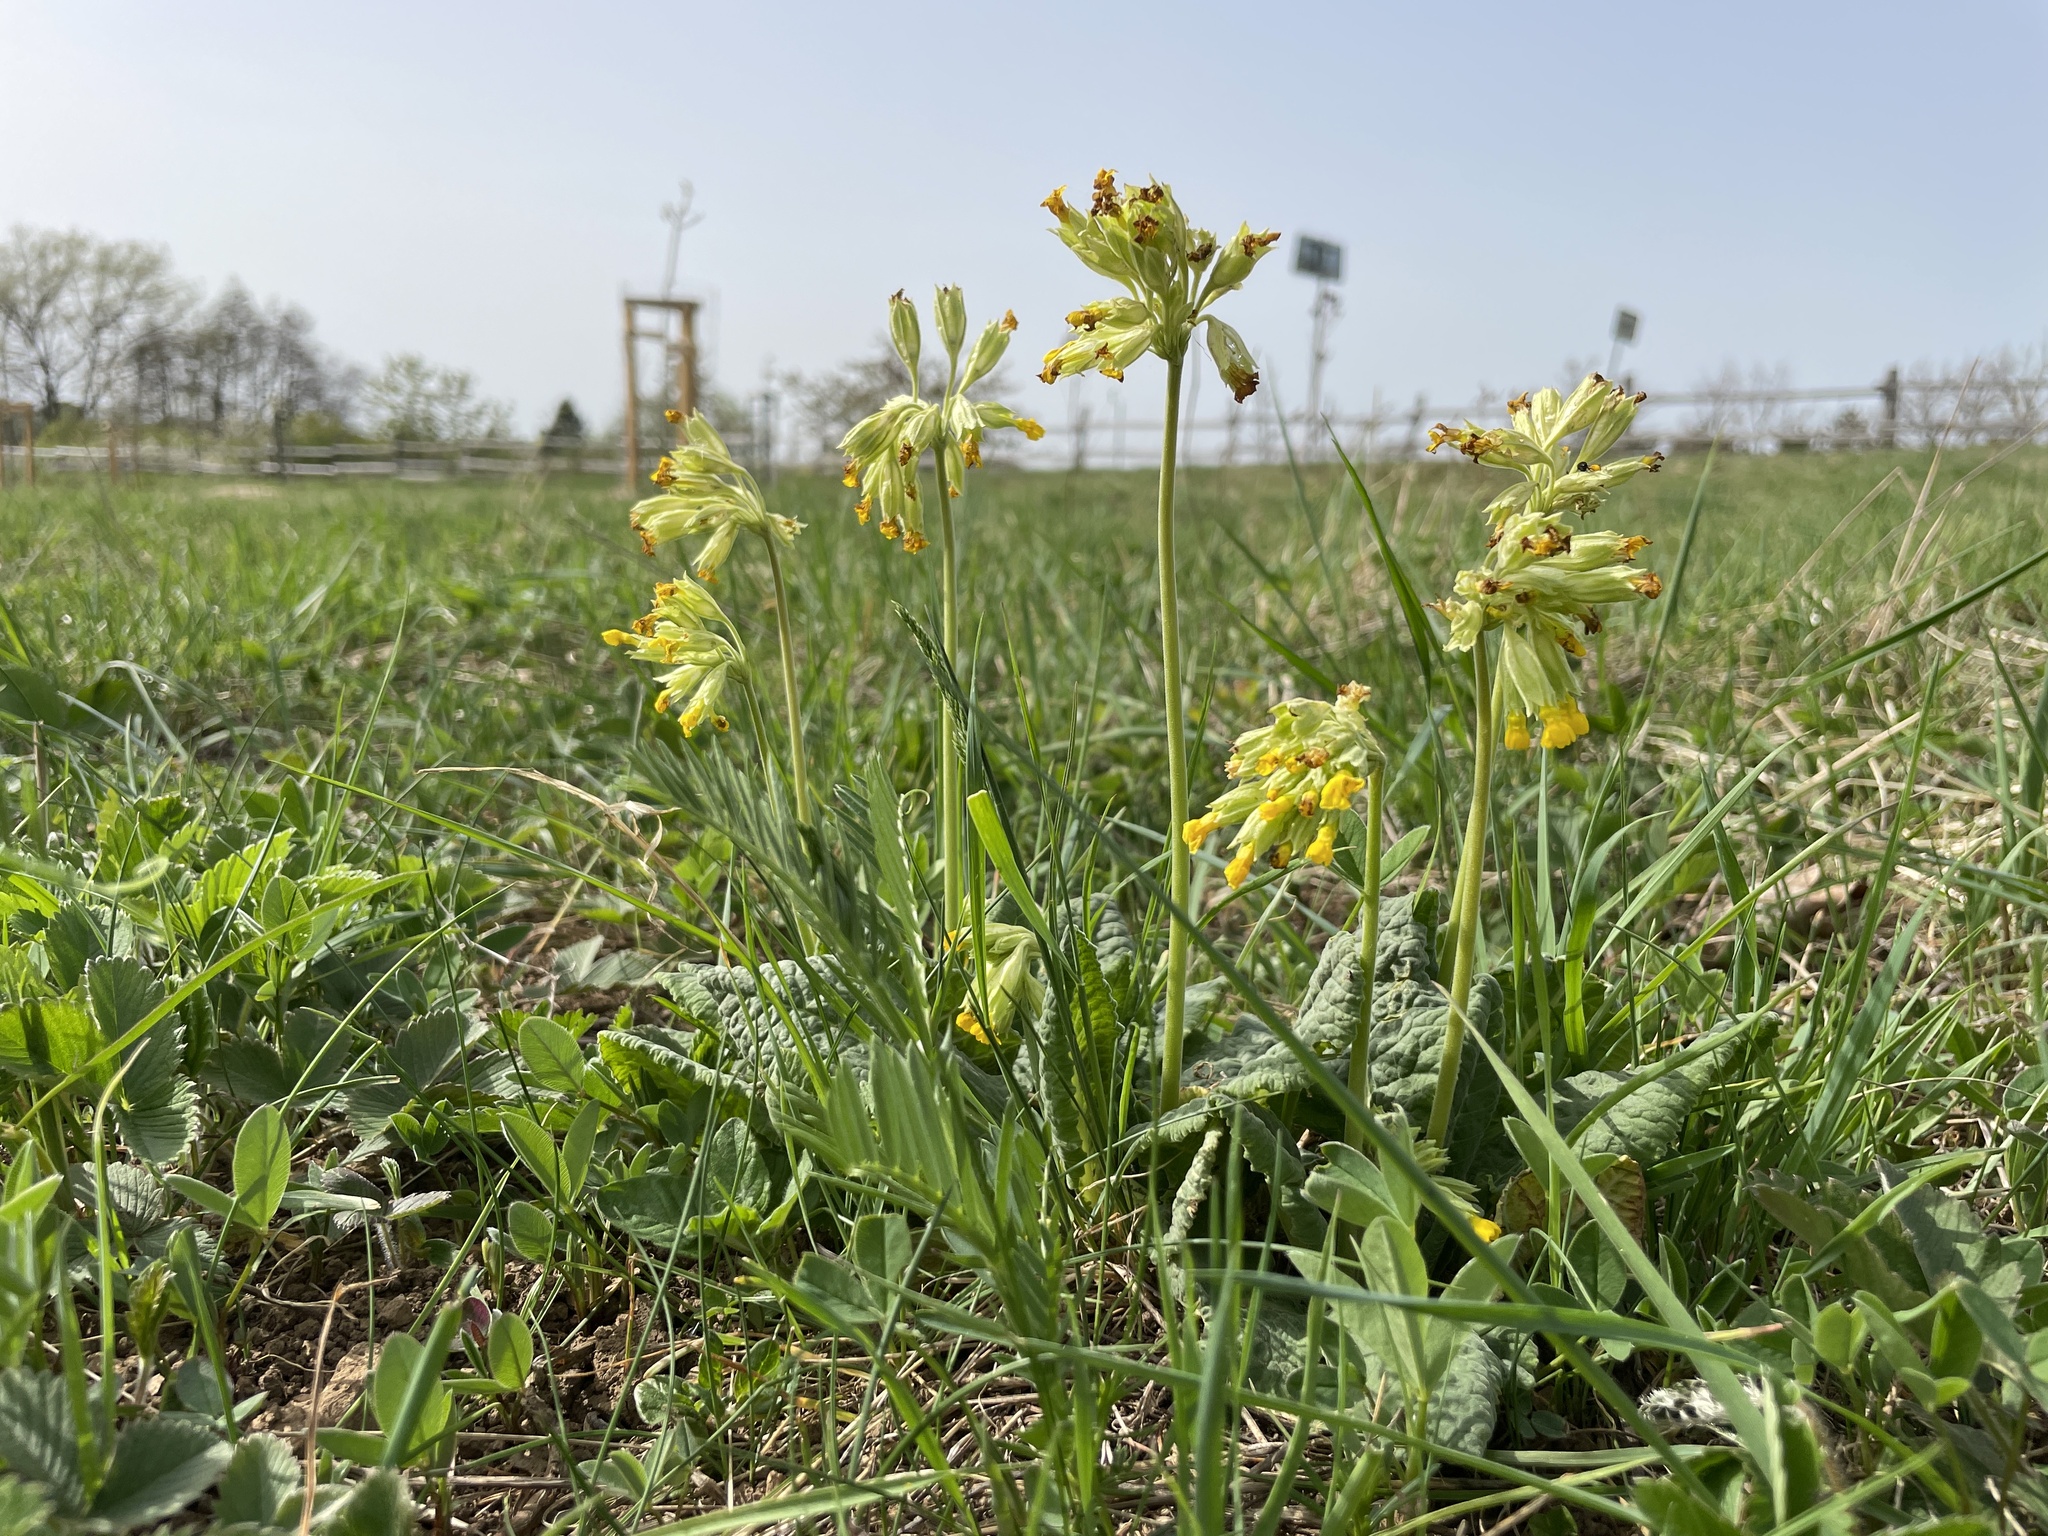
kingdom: Plantae
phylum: Tracheophyta
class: Magnoliopsida
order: Ericales
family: Primulaceae
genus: Primula
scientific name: Primula veris
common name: Cowslip
